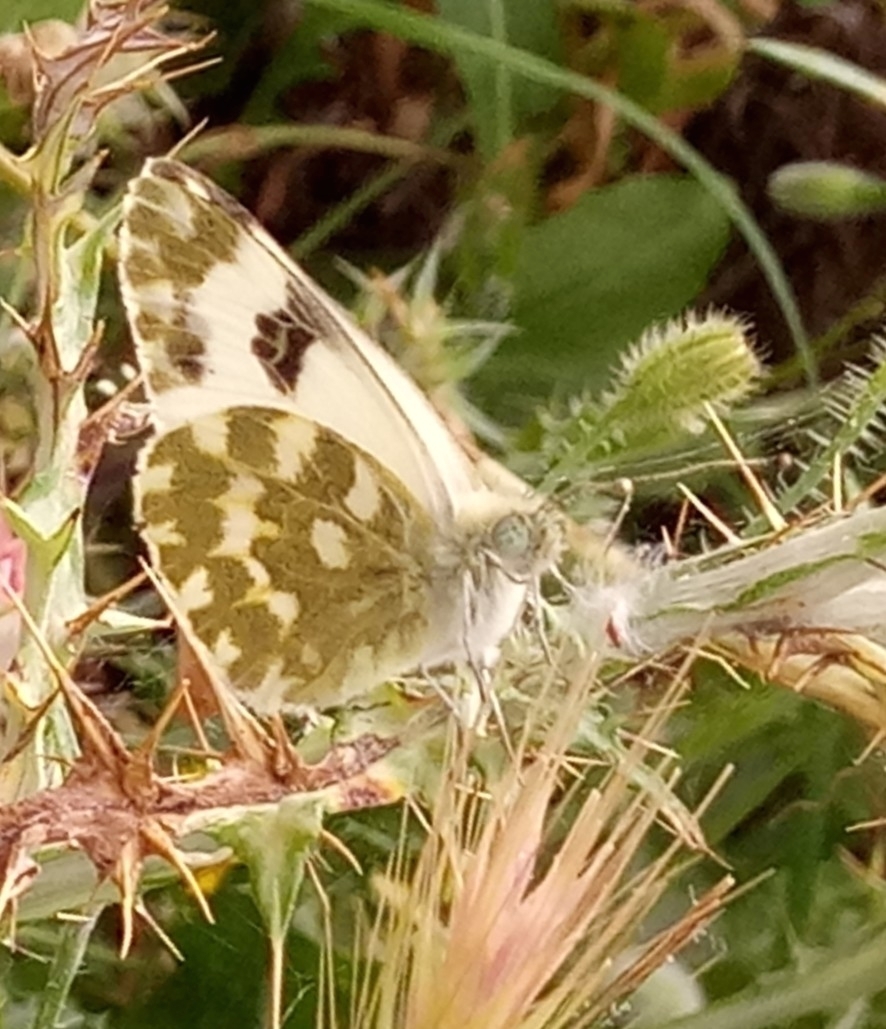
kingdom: Animalia
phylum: Arthropoda
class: Insecta
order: Lepidoptera
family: Pieridae
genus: Pontia
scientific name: Pontia daplidice
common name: Bath white
